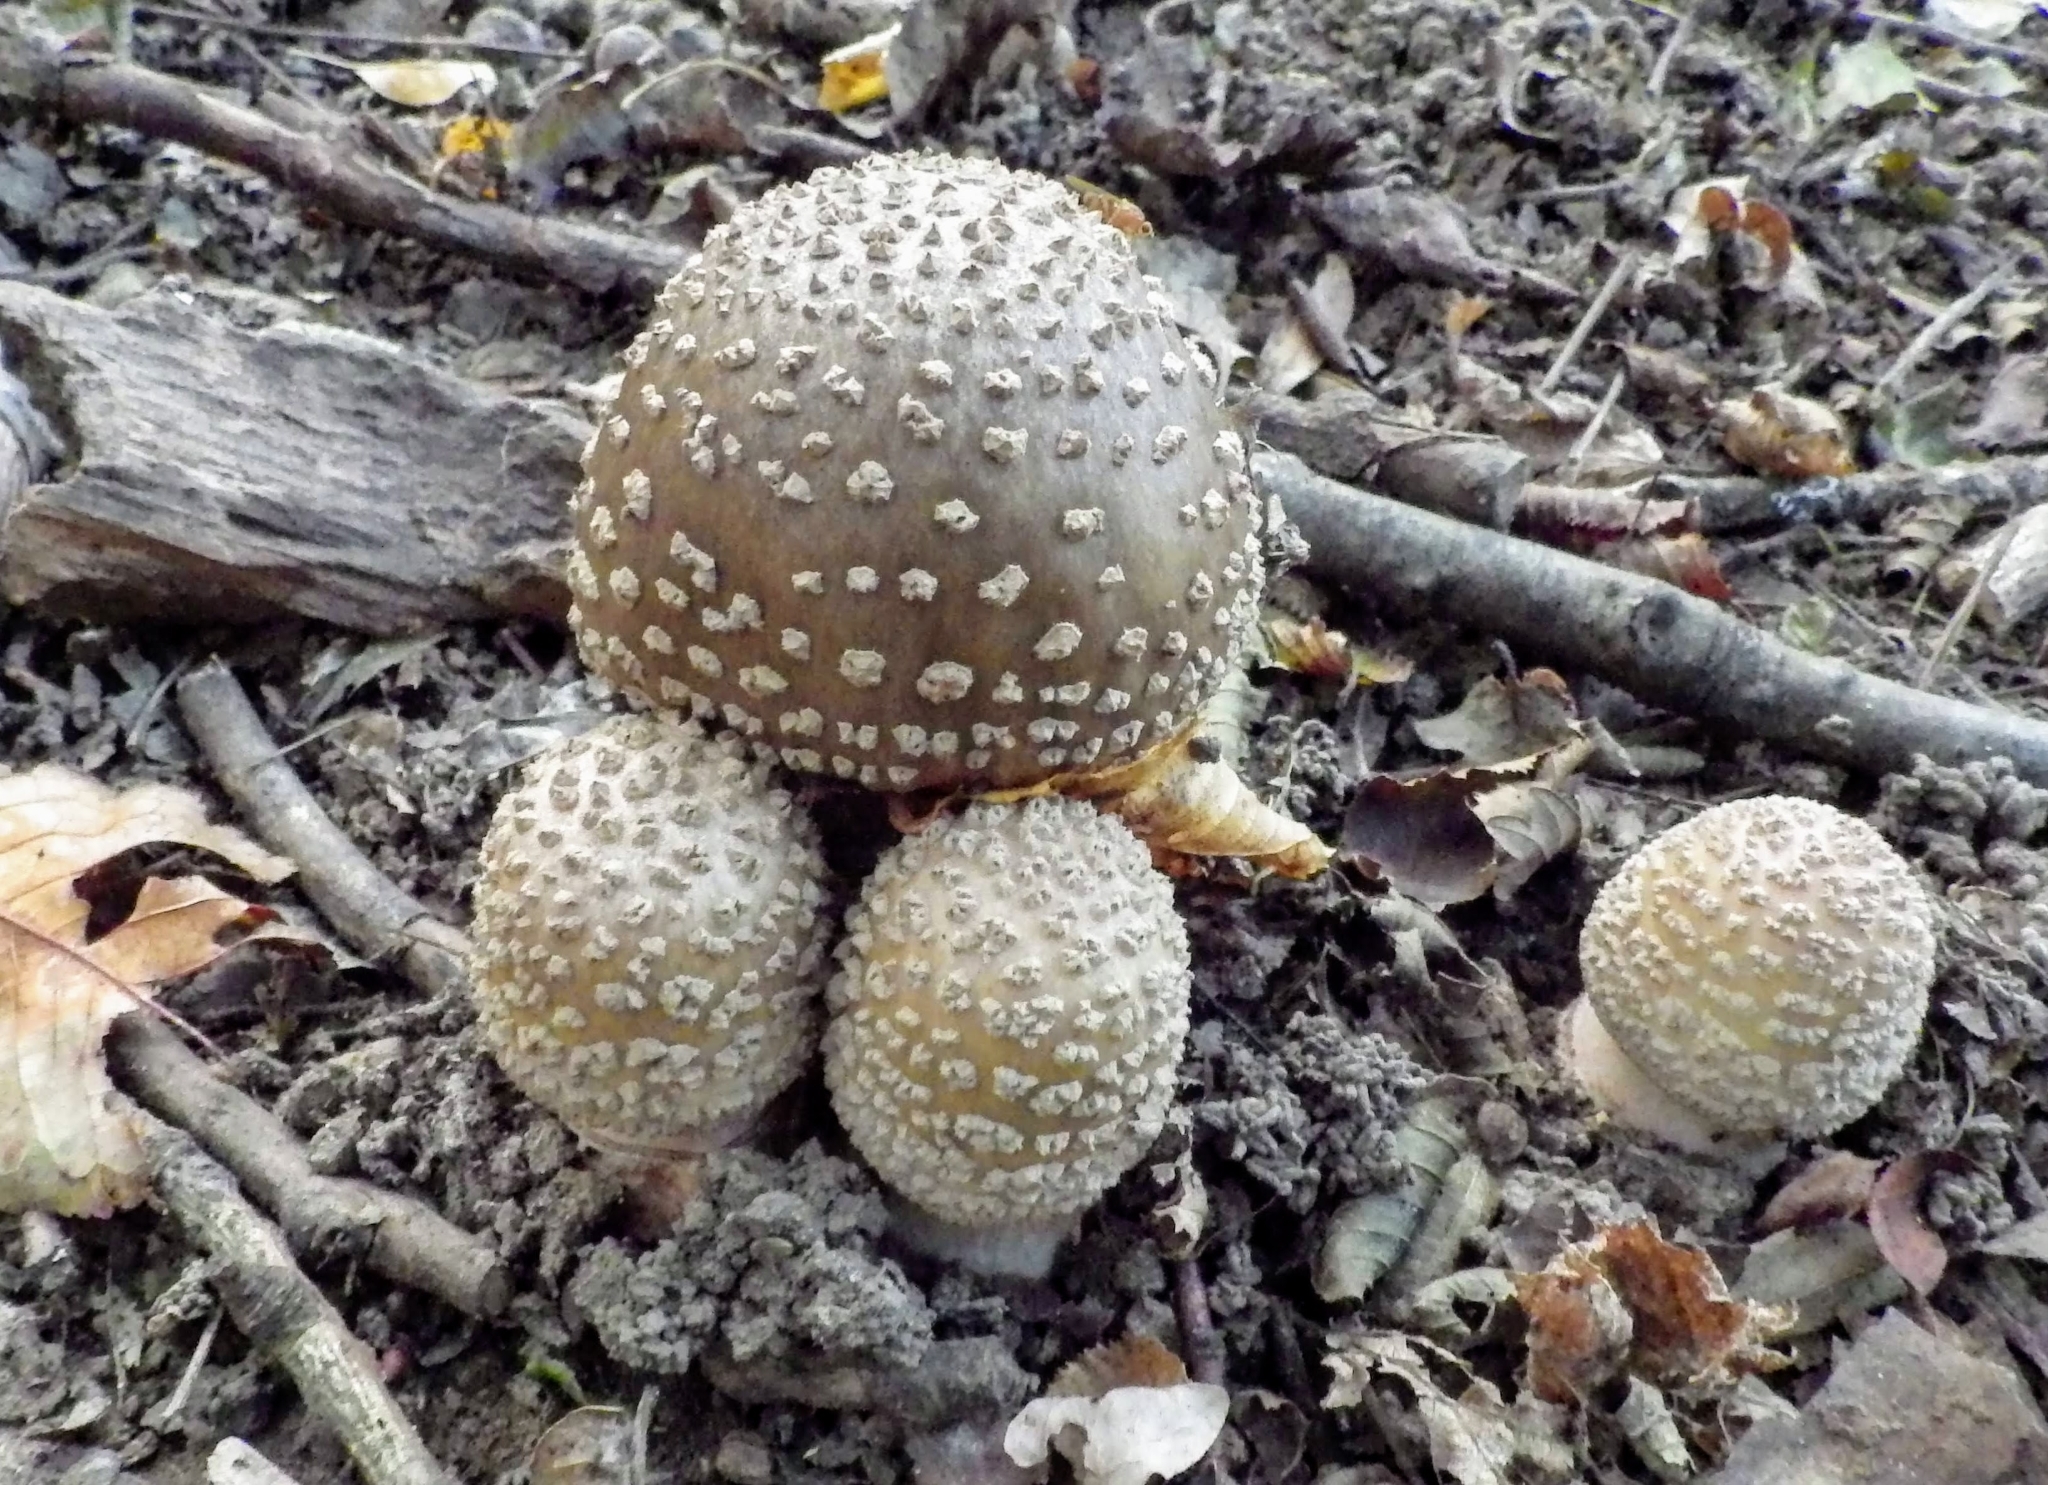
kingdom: Fungi
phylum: Basidiomycota
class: Agaricomycetes
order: Agaricales
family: Amanitaceae
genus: Amanita
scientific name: Amanita rubescens
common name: Blusher
